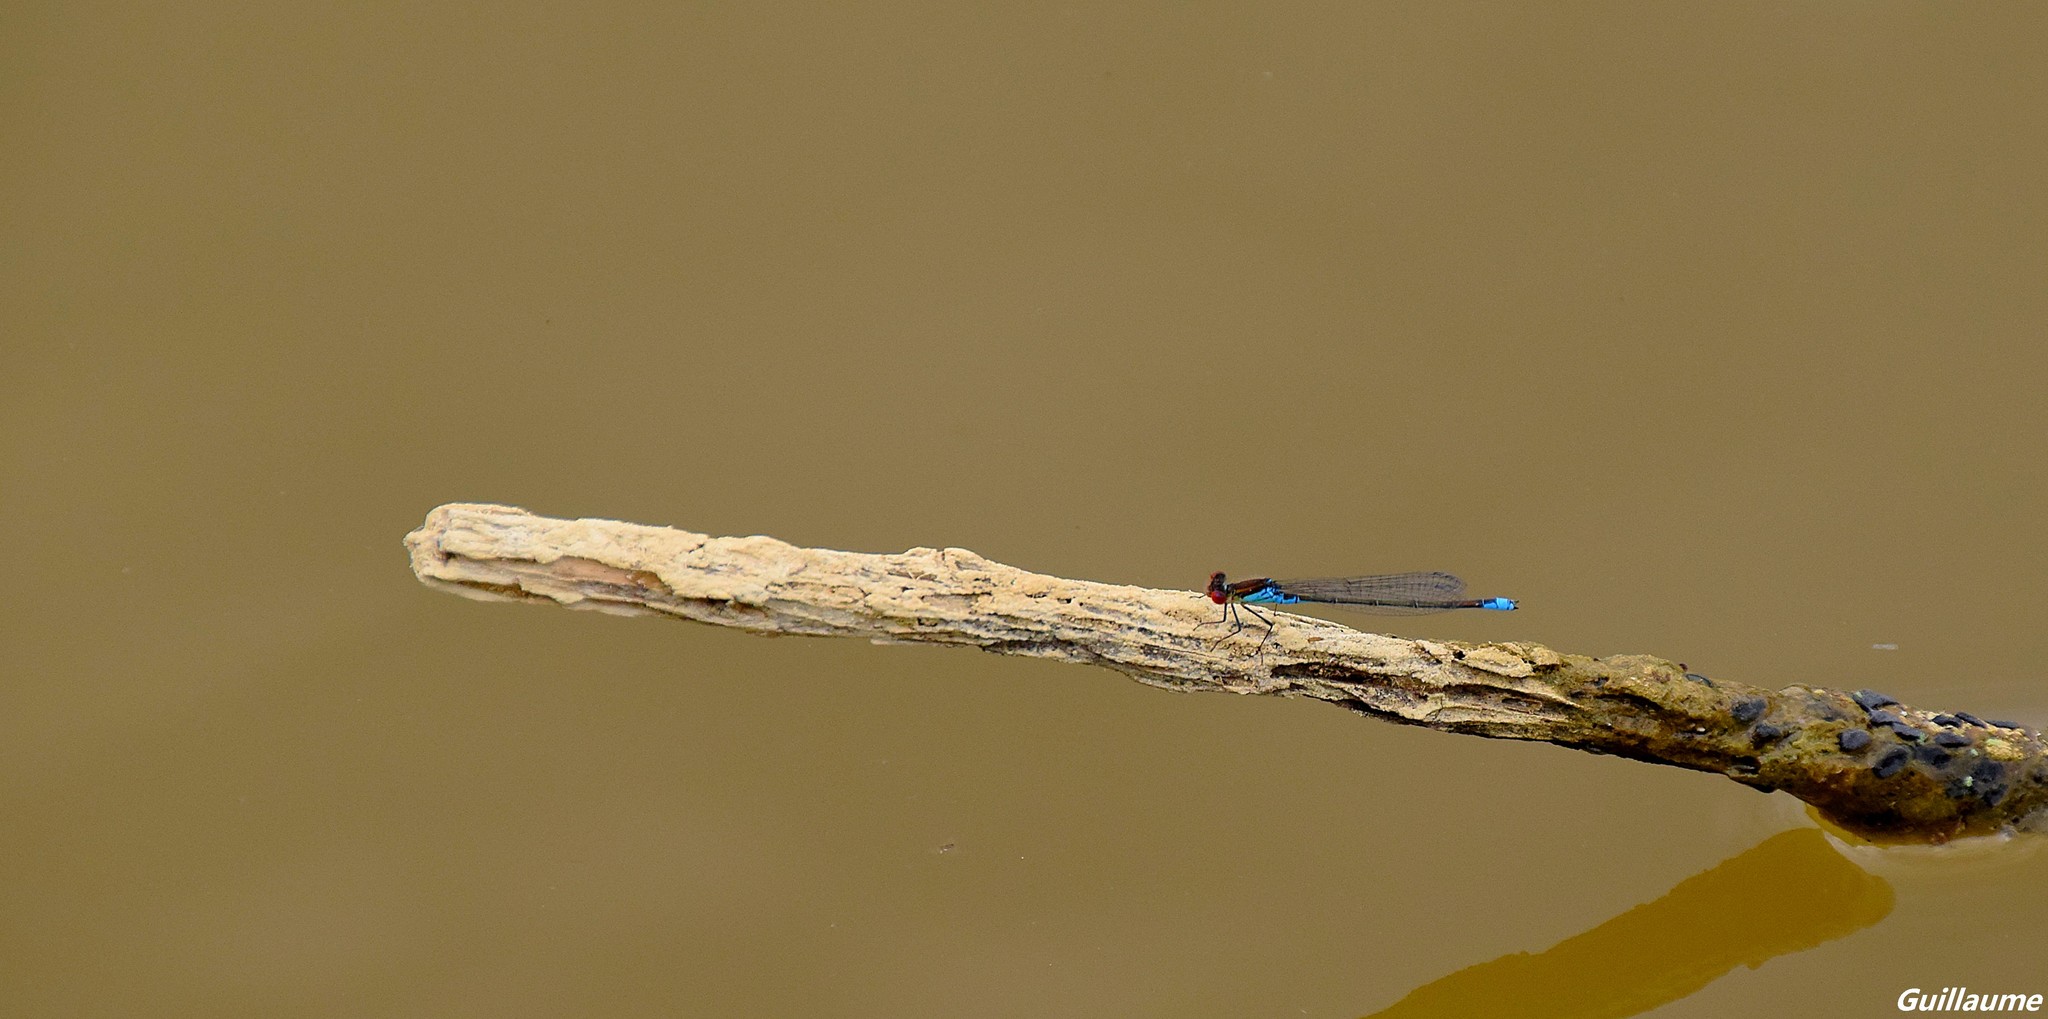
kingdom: Animalia
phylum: Arthropoda
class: Insecta
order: Odonata
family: Coenagrionidae
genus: Erythromma
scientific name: Erythromma viridulum
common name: Small red-eyed damselfly
